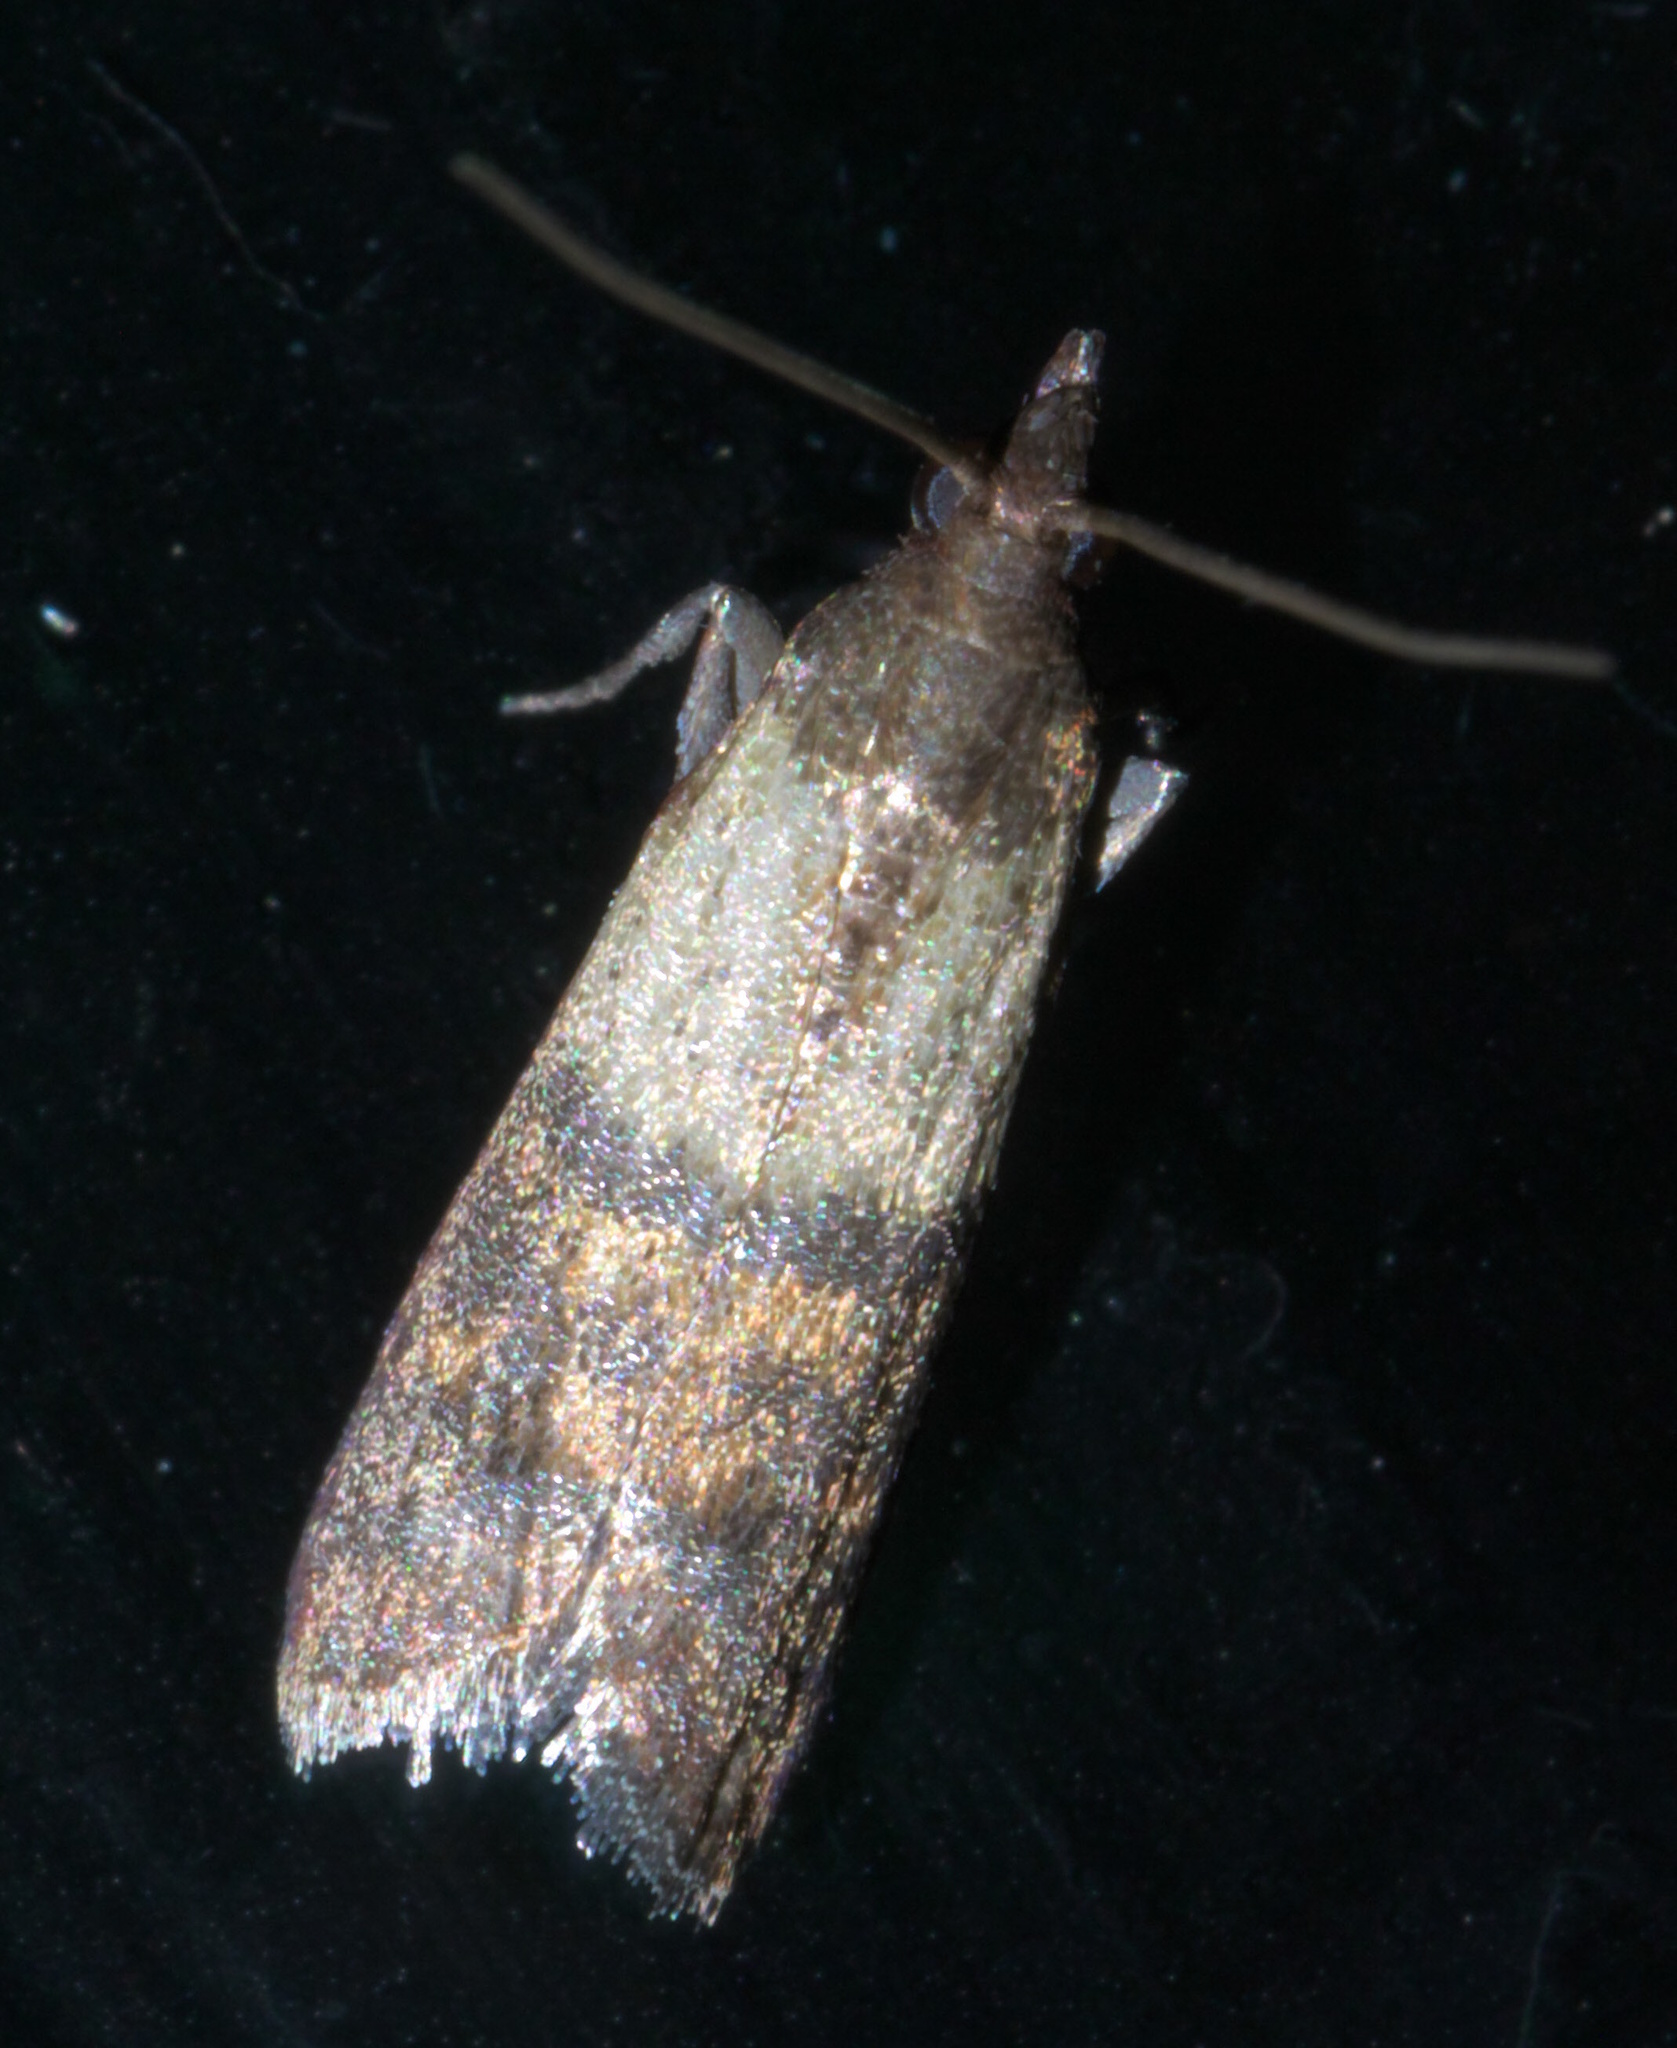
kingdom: Animalia
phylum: Arthropoda
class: Insecta
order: Lepidoptera
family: Pyralidae
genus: Plodia
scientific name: Plodia interpunctella
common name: Indian meal moth
